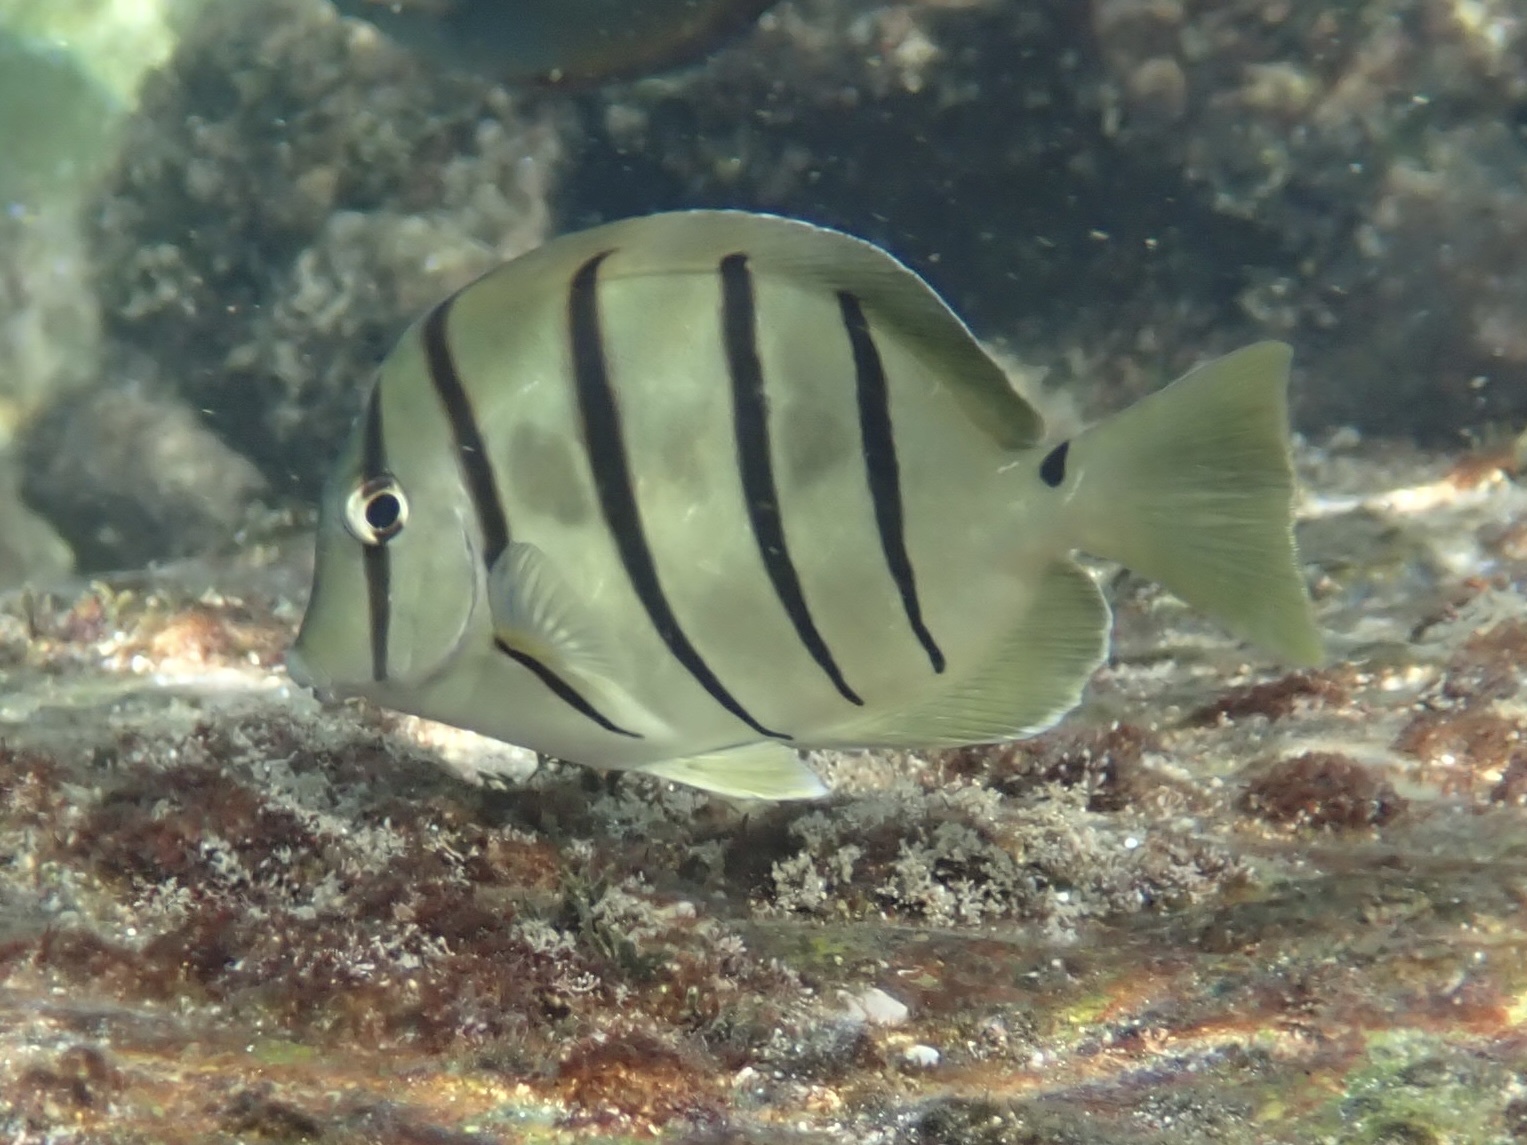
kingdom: Animalia
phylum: Chordata
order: Perciformes
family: Acanthuridae
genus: Acanthurus
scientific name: Acanthurus triostegus
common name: Convict surgeonfish
